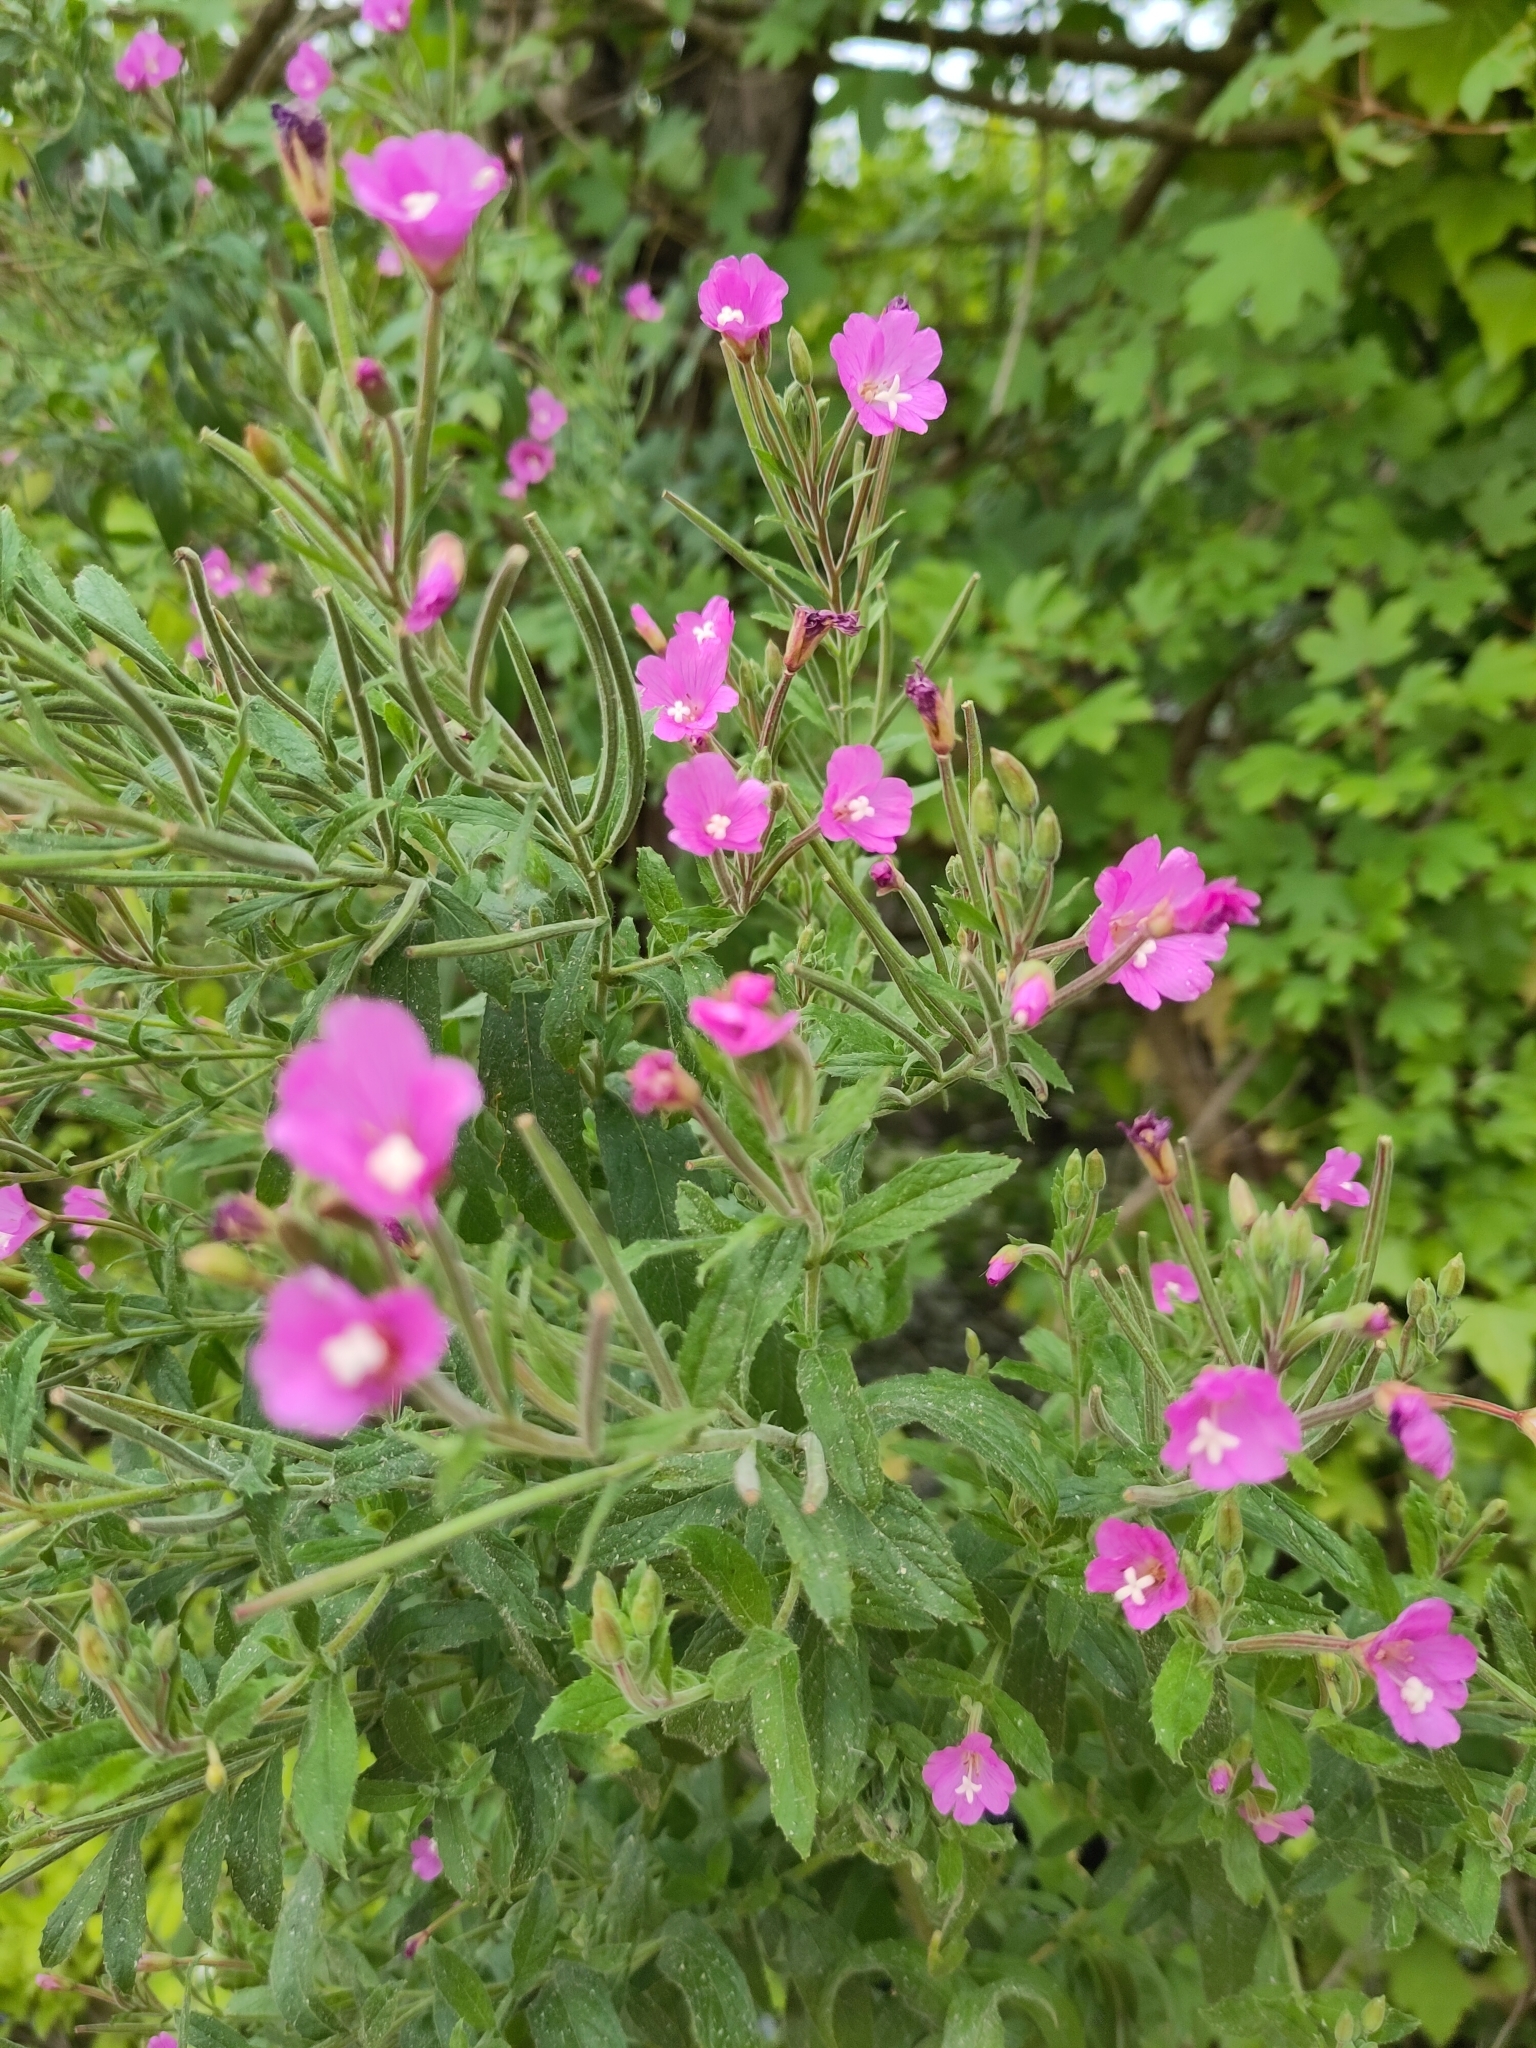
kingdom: Plantae
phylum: Tracheophyta
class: Magnoliopsida
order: Myrtales
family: Onagraceae
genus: Epilobium
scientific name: Epilobium hirsutum
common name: Great willowherb
